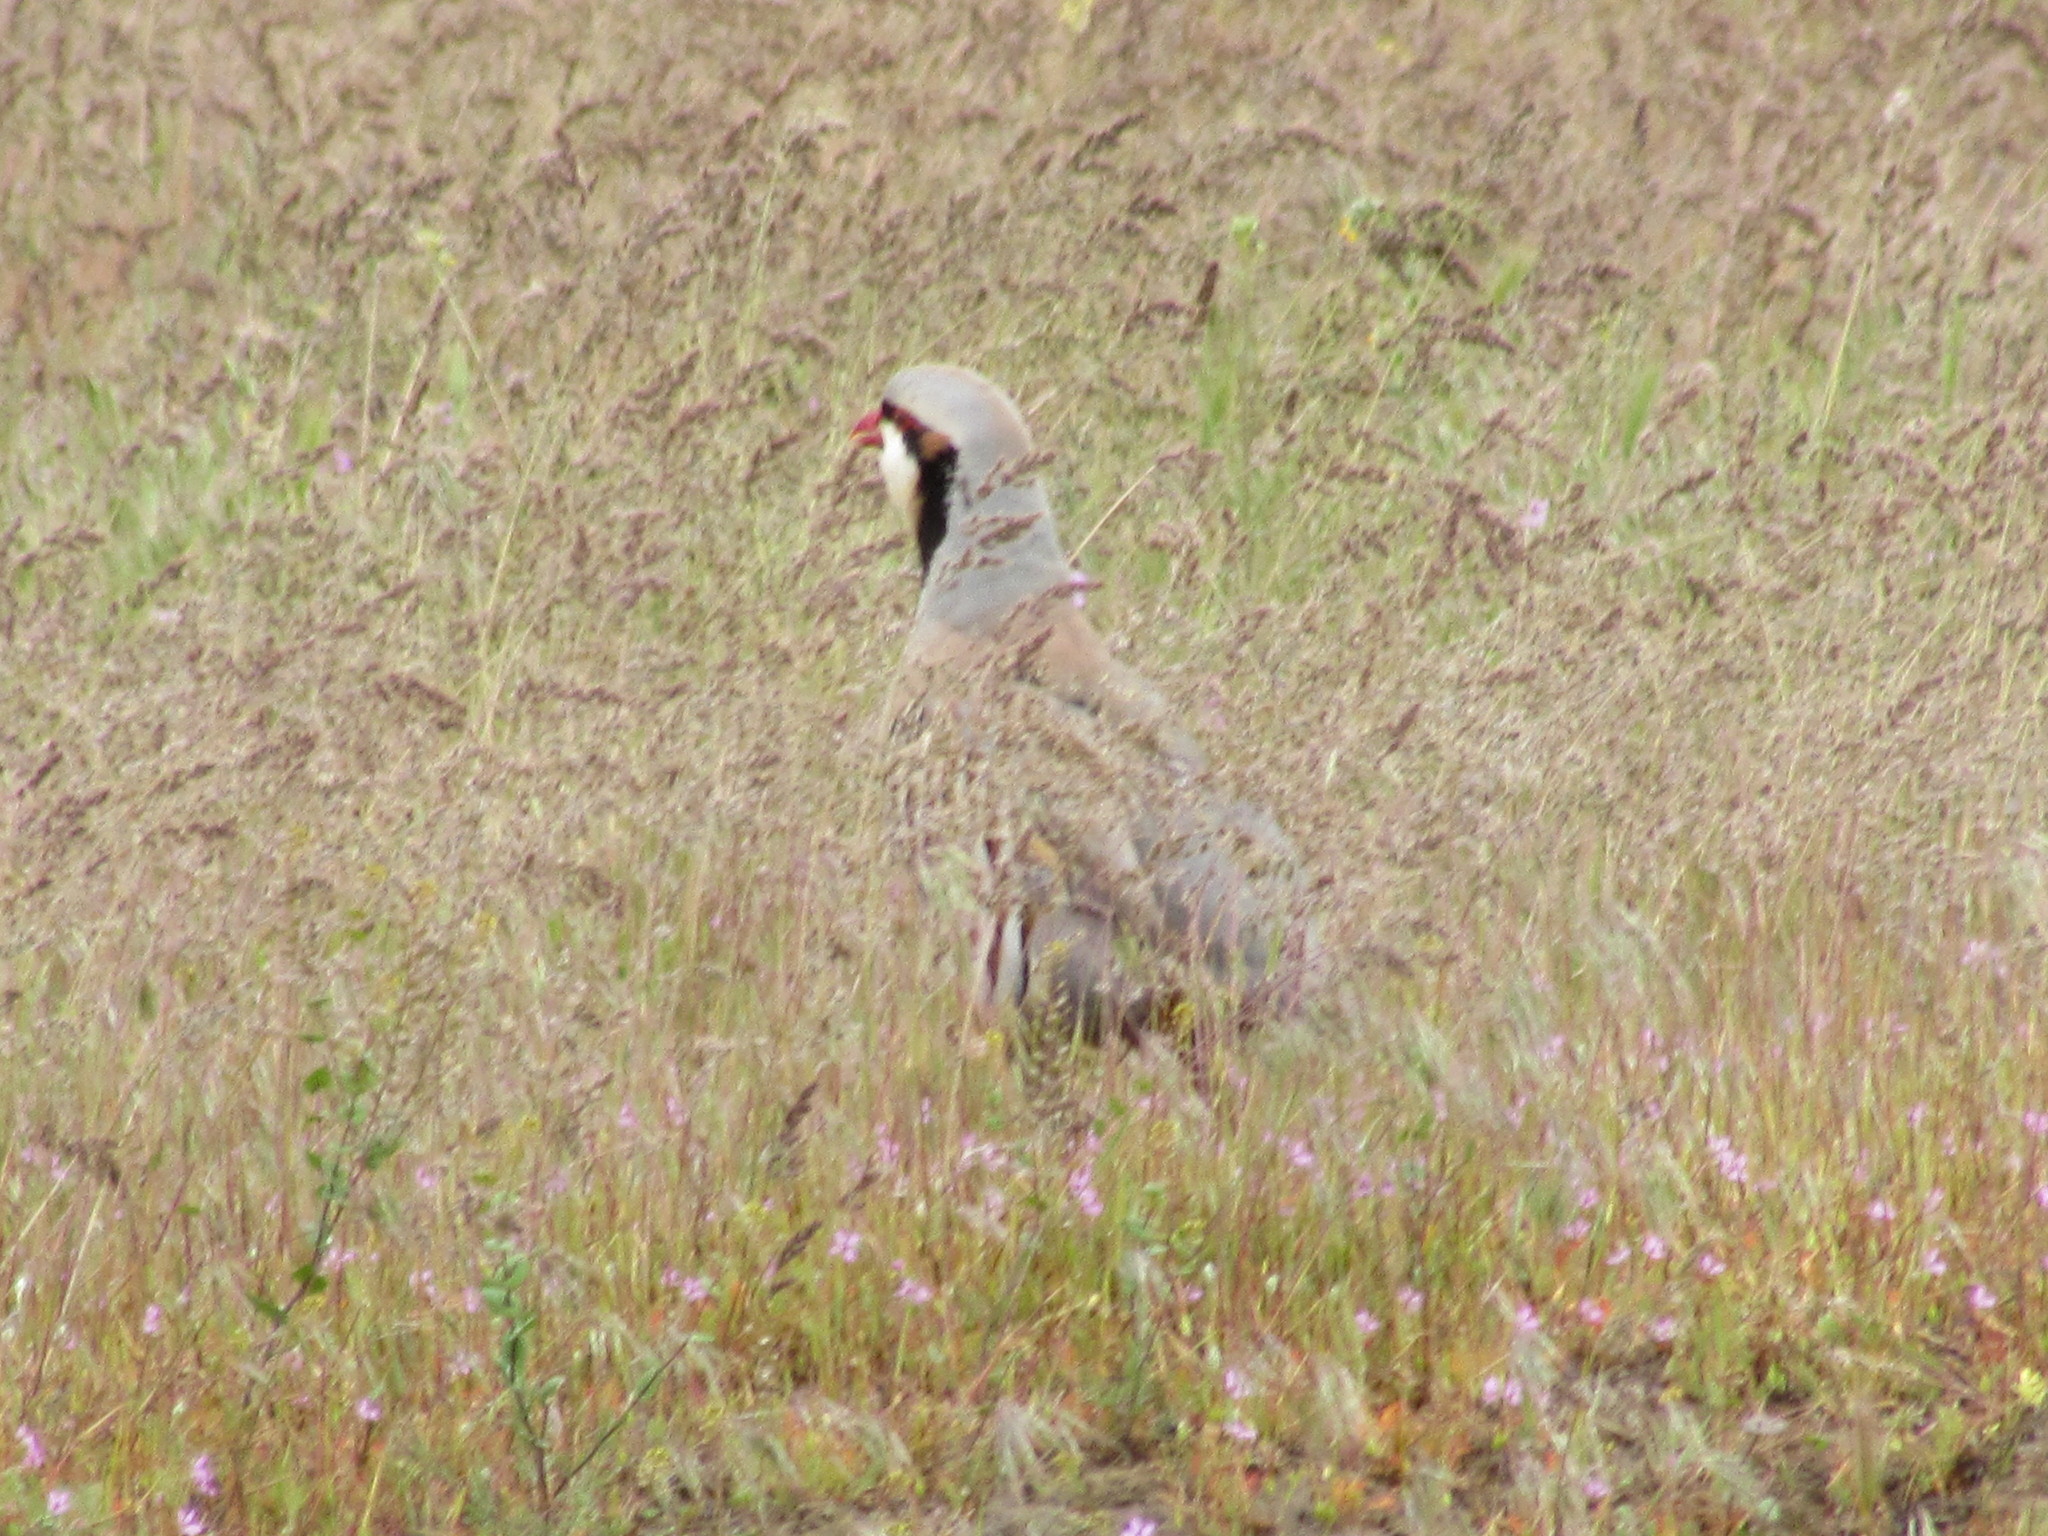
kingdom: Animalia
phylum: Chordata
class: Aves
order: Galliformes
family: Phasianidae
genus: Alectoris
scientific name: Alectoris chukar
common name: Chukar
